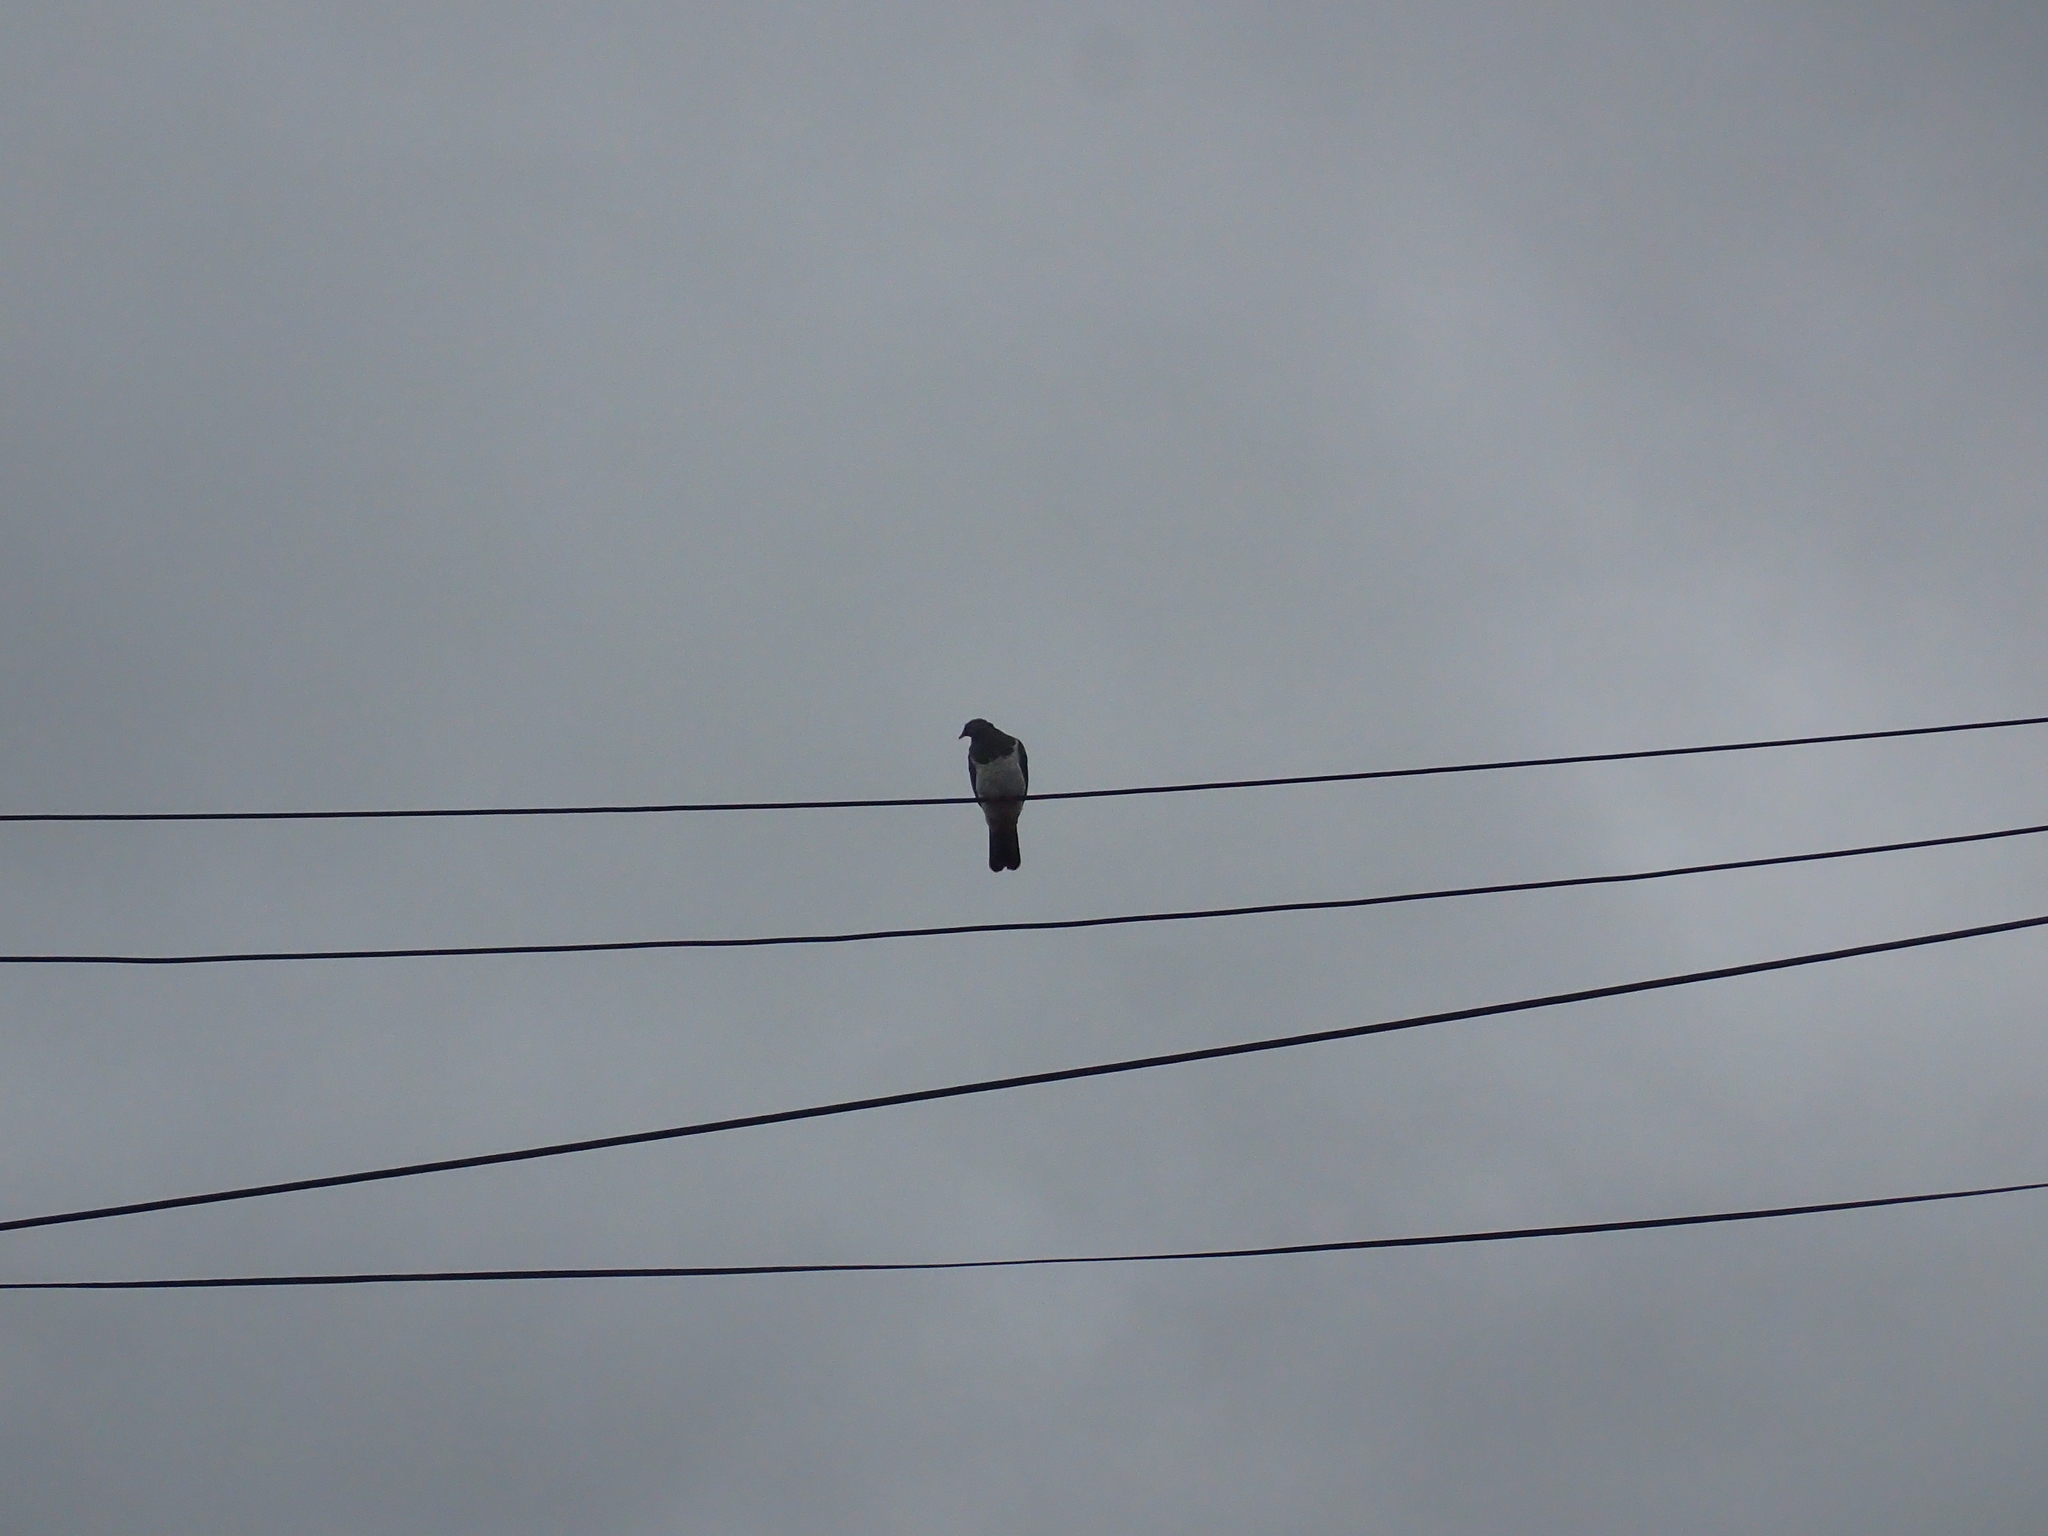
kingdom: Animalia
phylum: Chordata
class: Aves
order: Columbiformes
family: Columbidae
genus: Hemiphaga
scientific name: Hemiphaga novaeseelandiae
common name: New zealand pigeon
